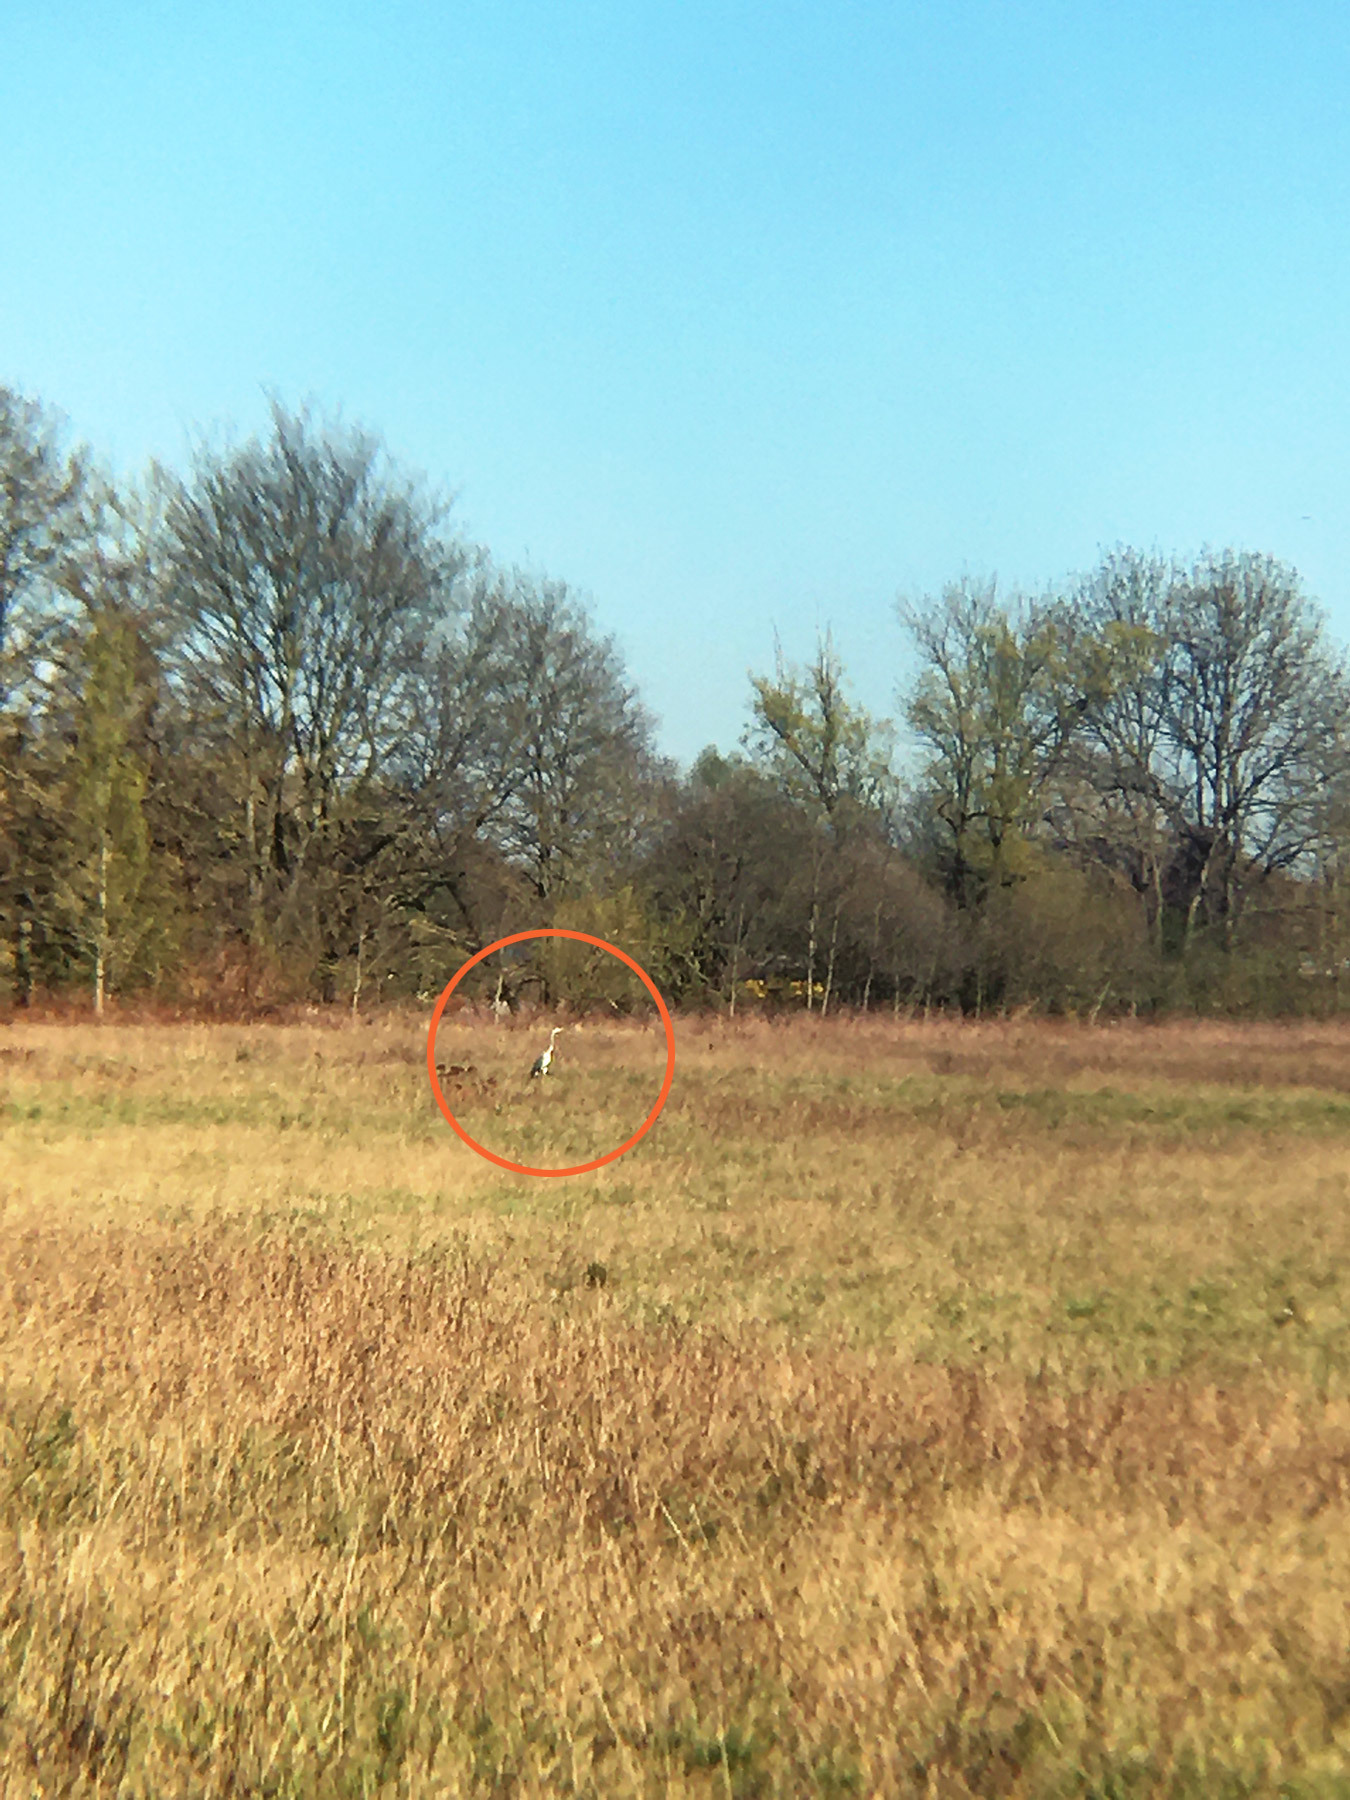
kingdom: Animalia
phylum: Chordata
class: Aves
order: Pelecaniformes
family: Ardeidae
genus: Ardea
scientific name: Ardea cinerea
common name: Grey heron
